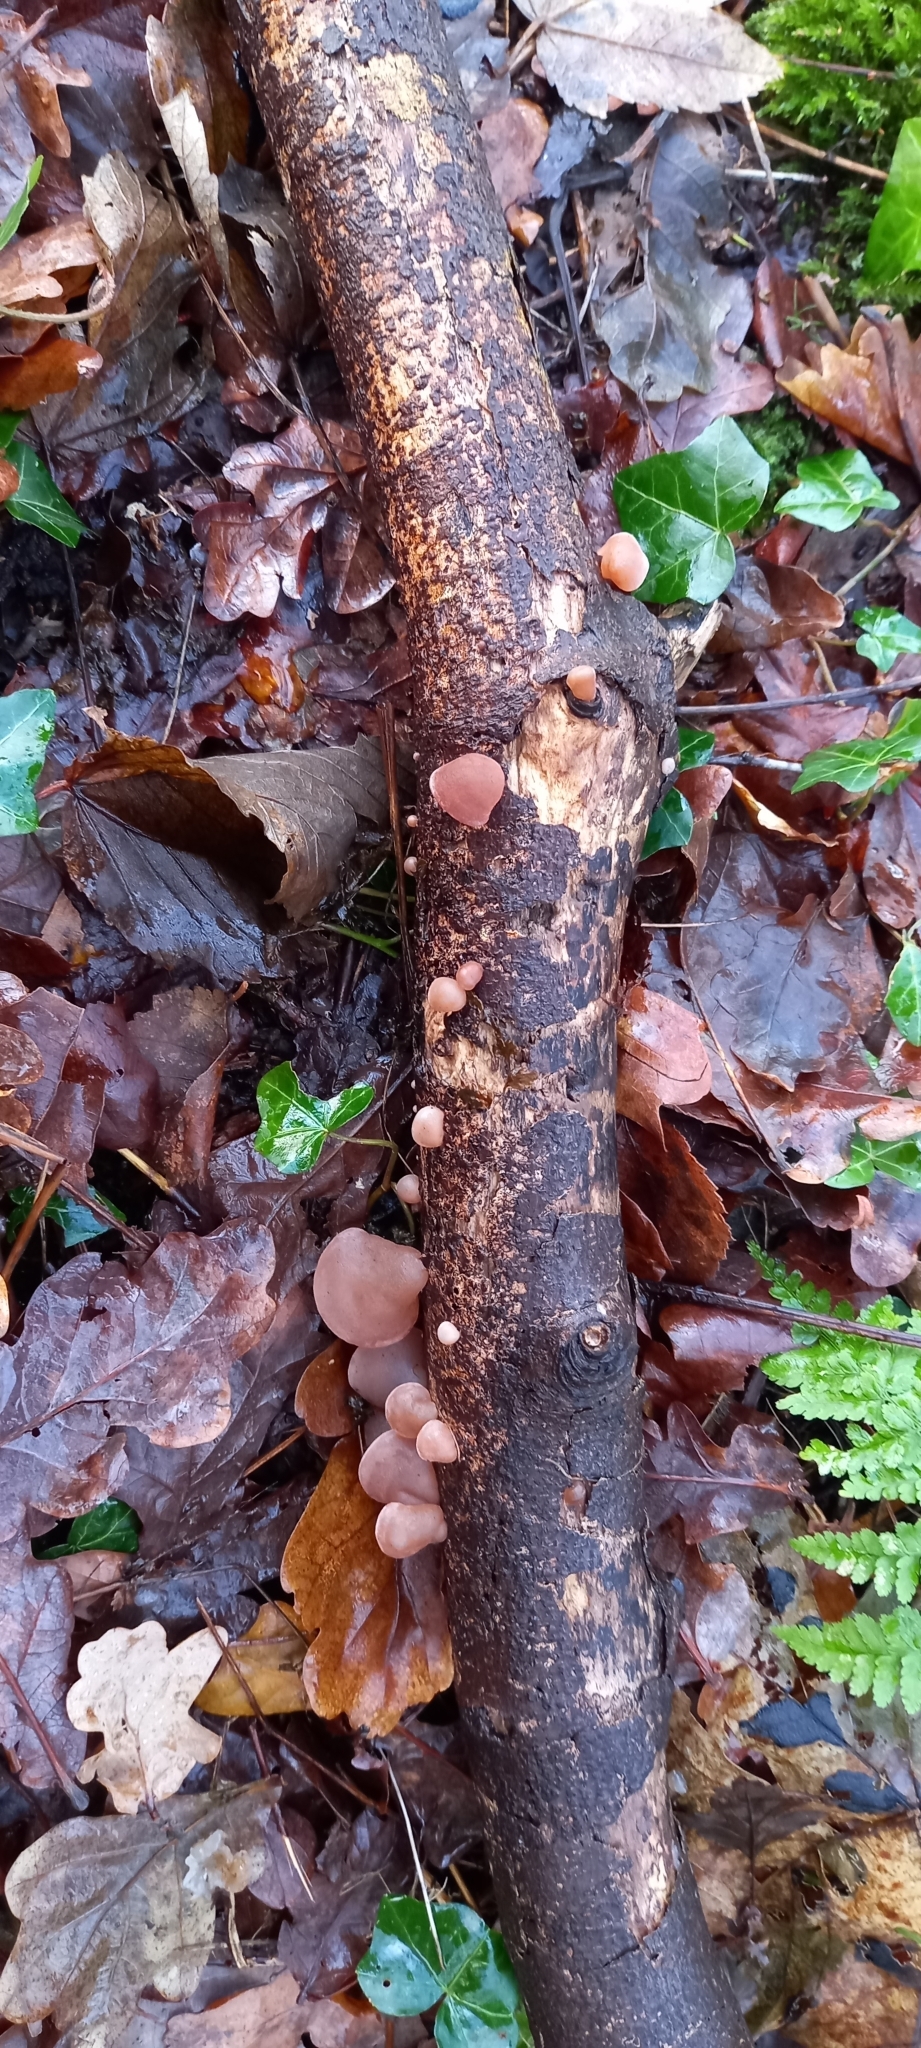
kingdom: Fungi
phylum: Basidiomycota
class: Agaricomycetes
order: Auriculariales
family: Auriculariaceae
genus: Auricularia
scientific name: Auricularia auricula-judae
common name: Jelly ear
